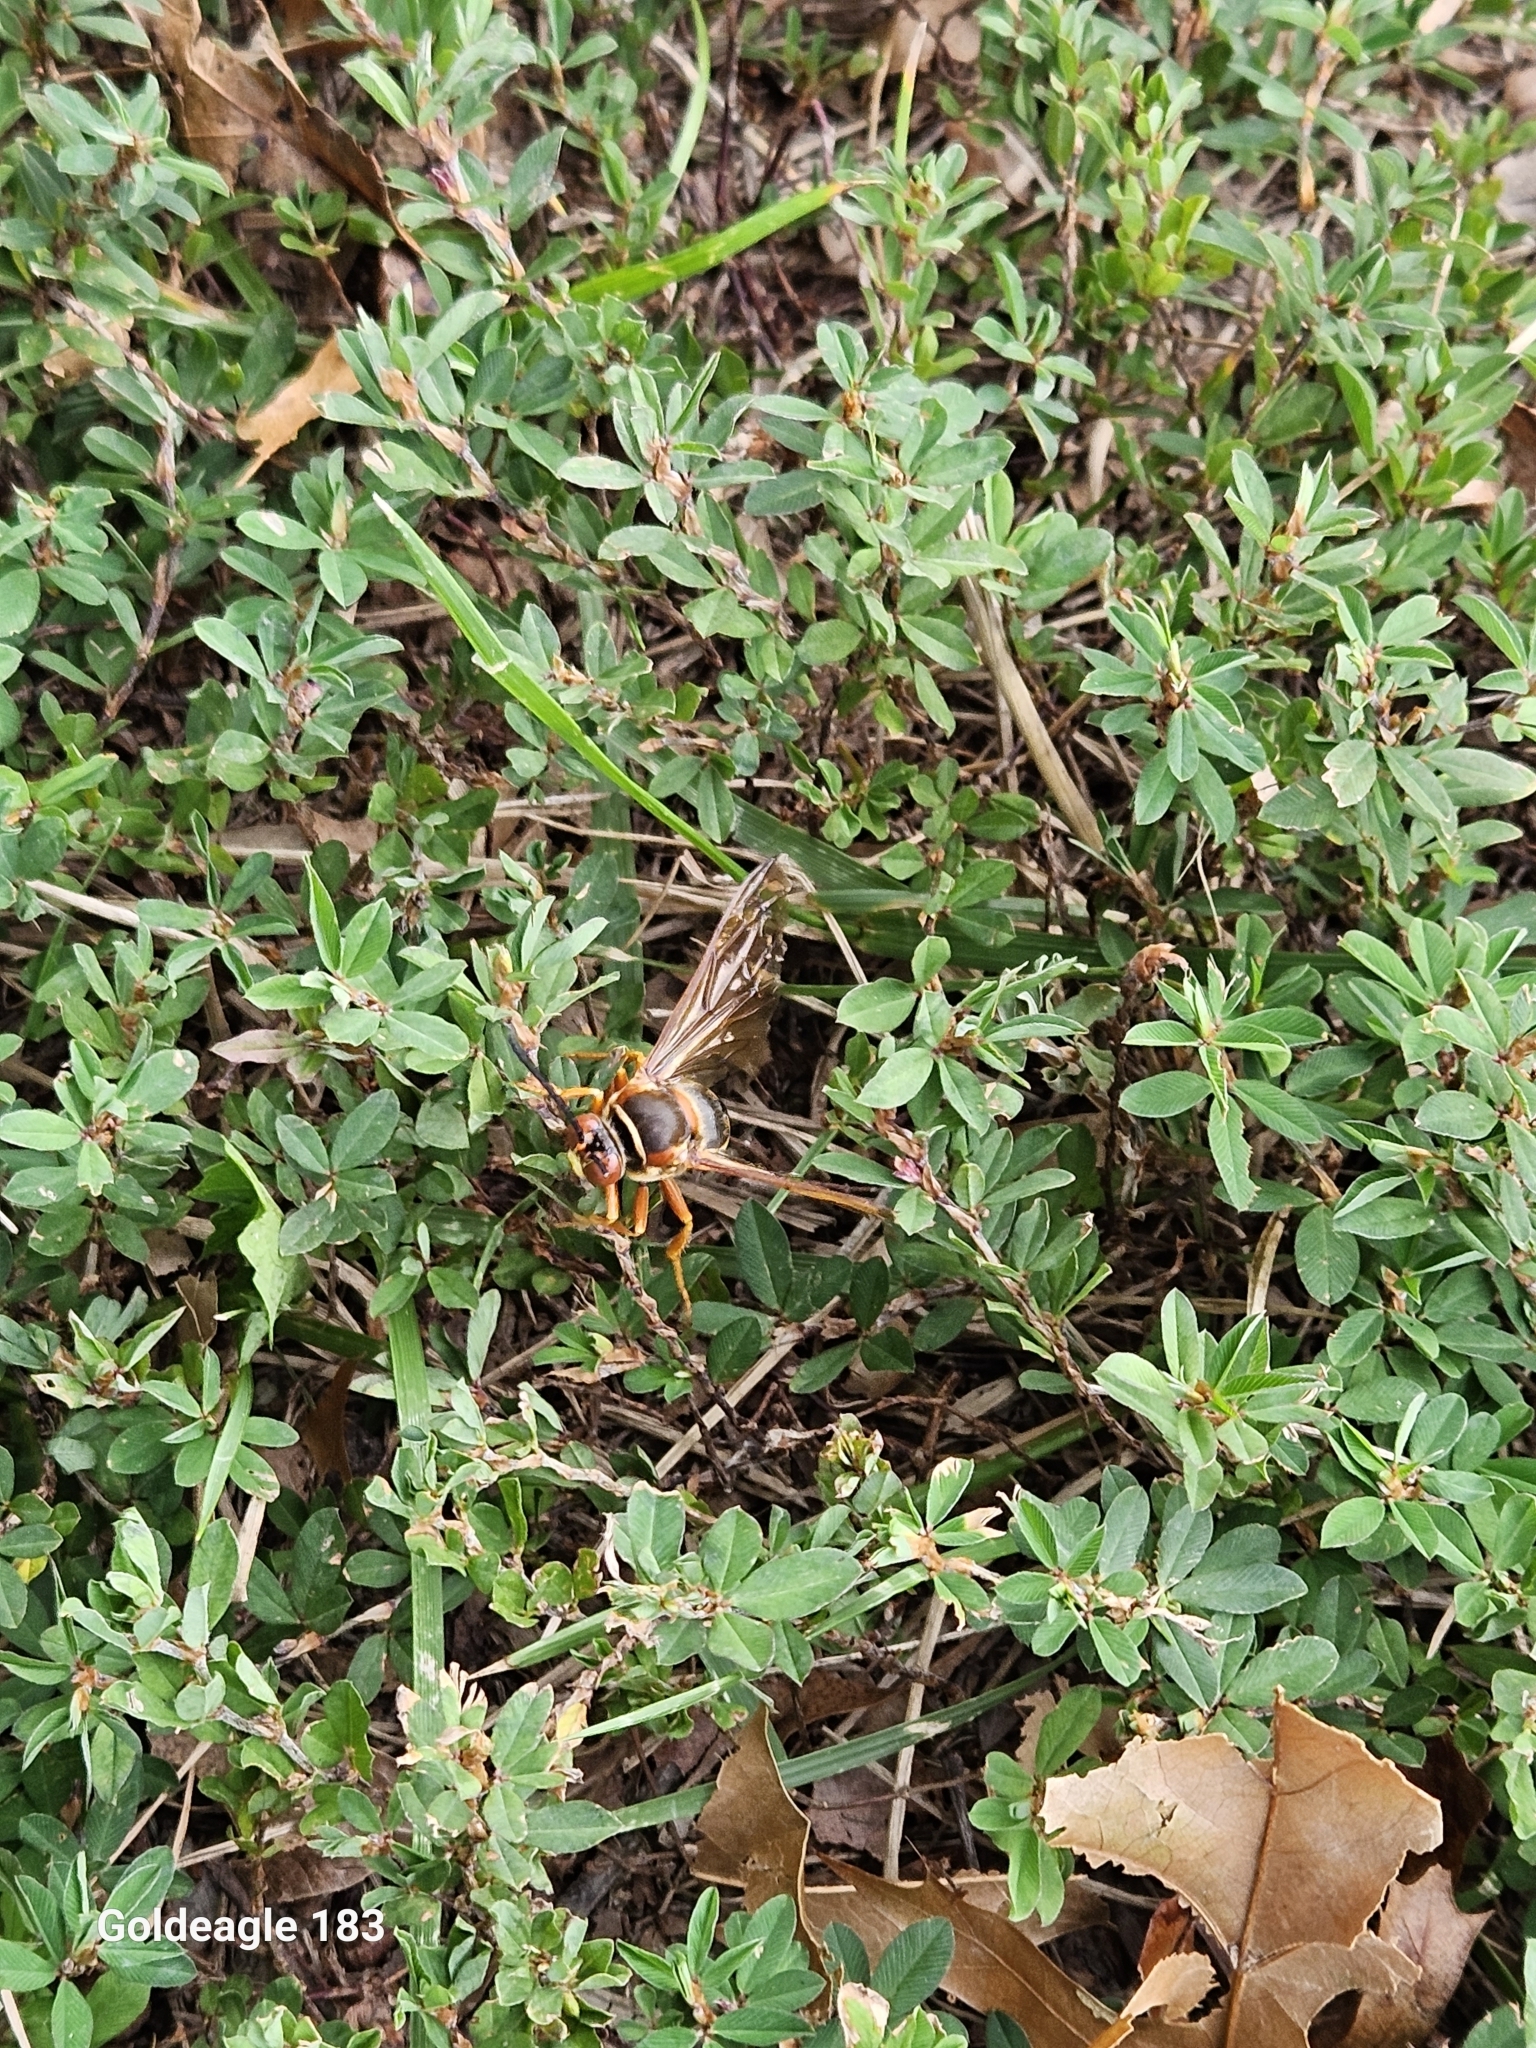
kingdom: Animalia
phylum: Arthropoda
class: Insecta
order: Hymenoptera
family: Crabronidae
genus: Sphecius
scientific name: Sphecius speciosus
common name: Cicada killer
